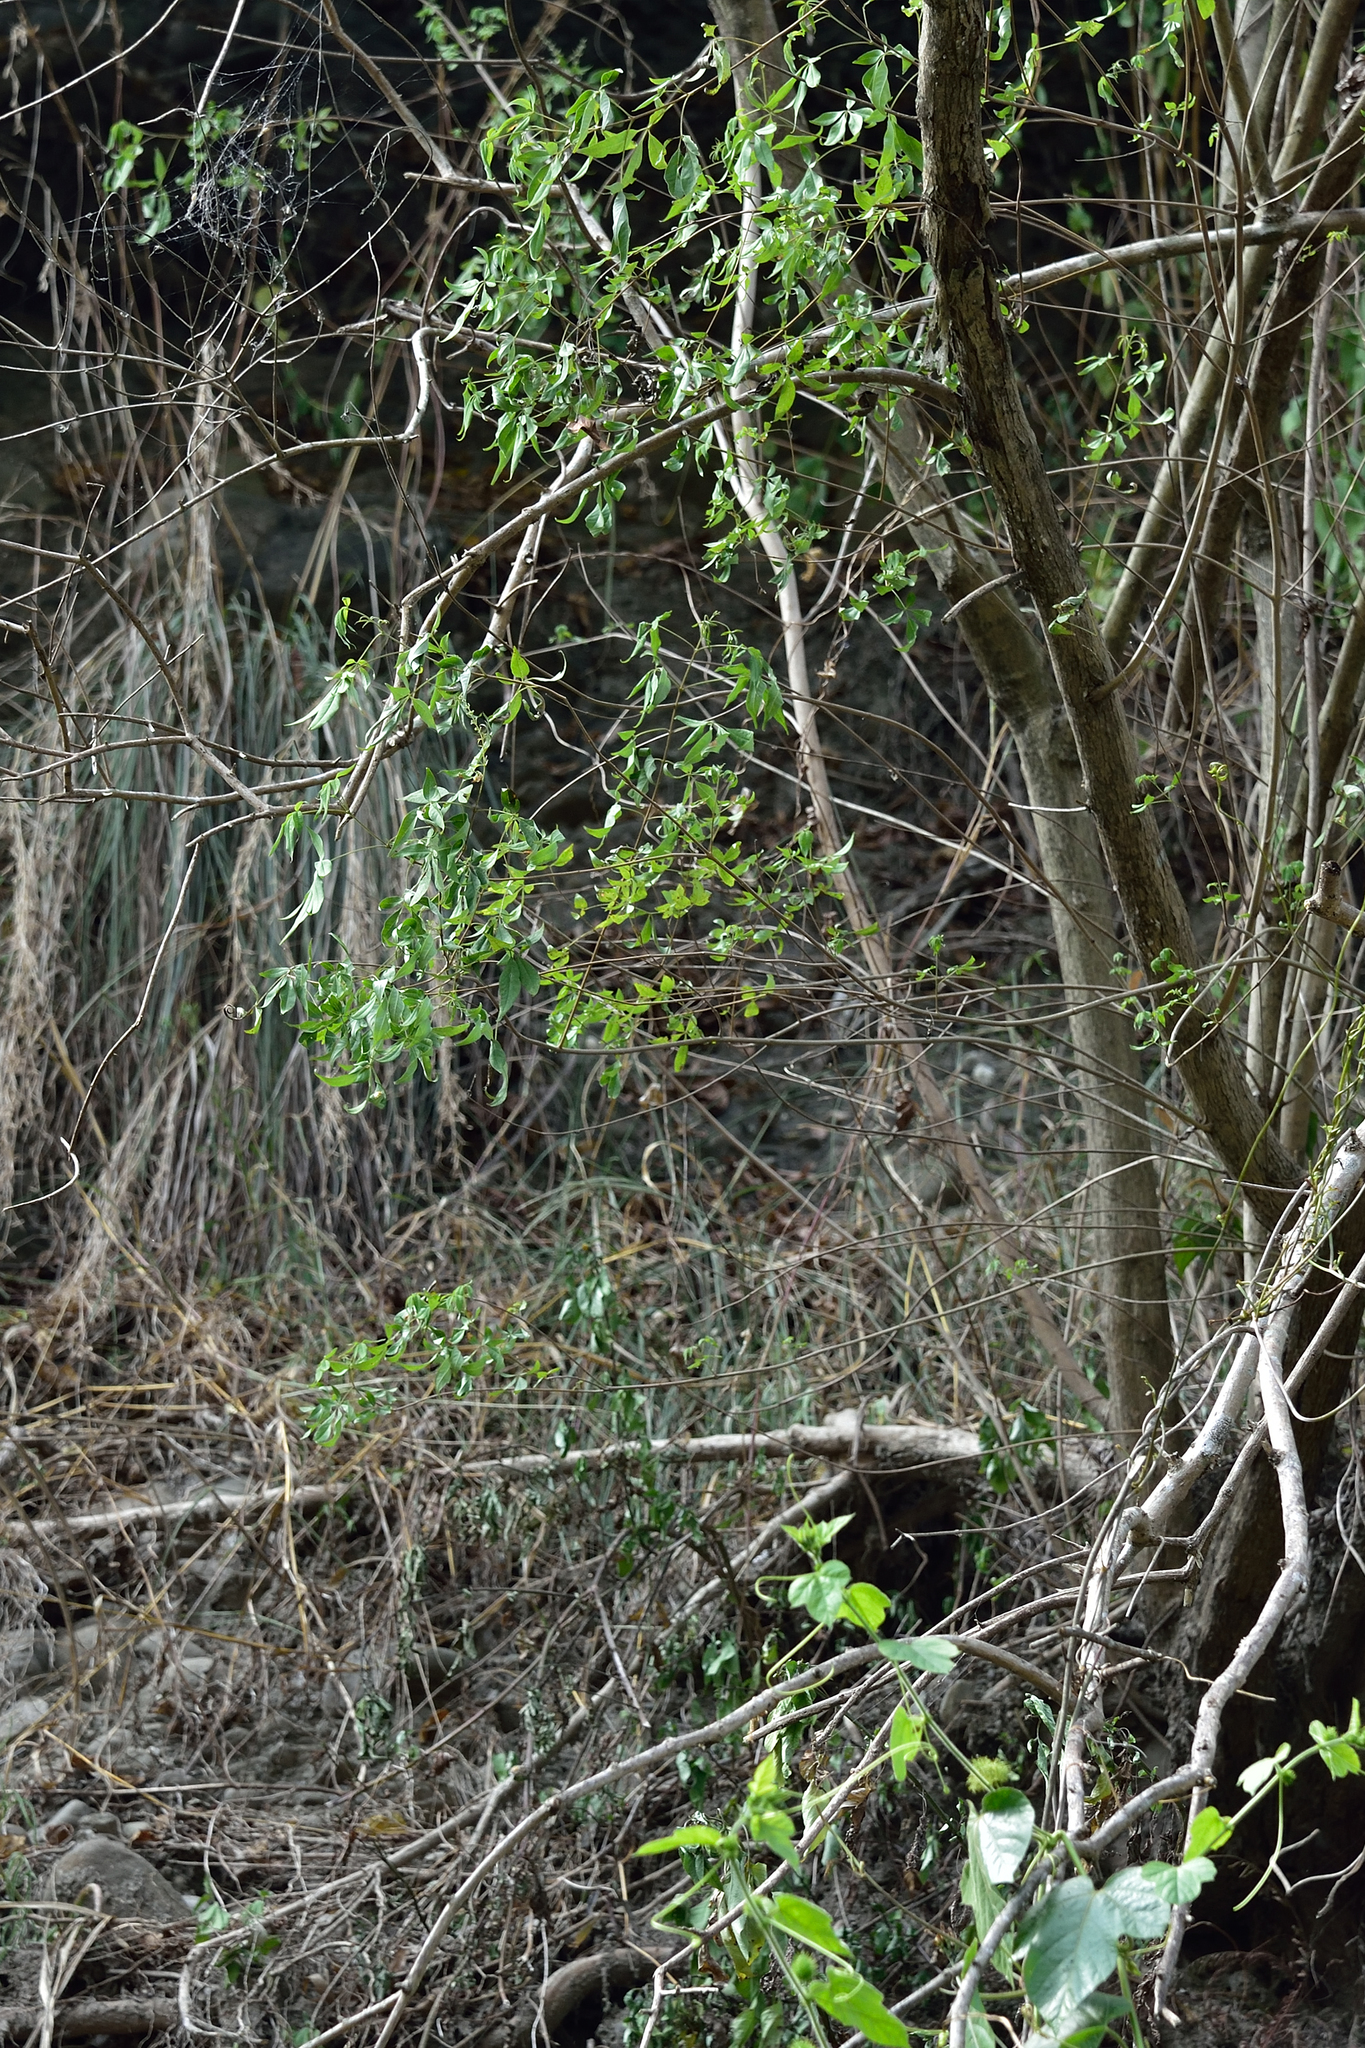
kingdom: Plantae
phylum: Tracheophyta
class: Magnoliopsida
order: Lamiales
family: Lamiaceae
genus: Vitex
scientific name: Vitex negundo
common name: Chinese chastetree
